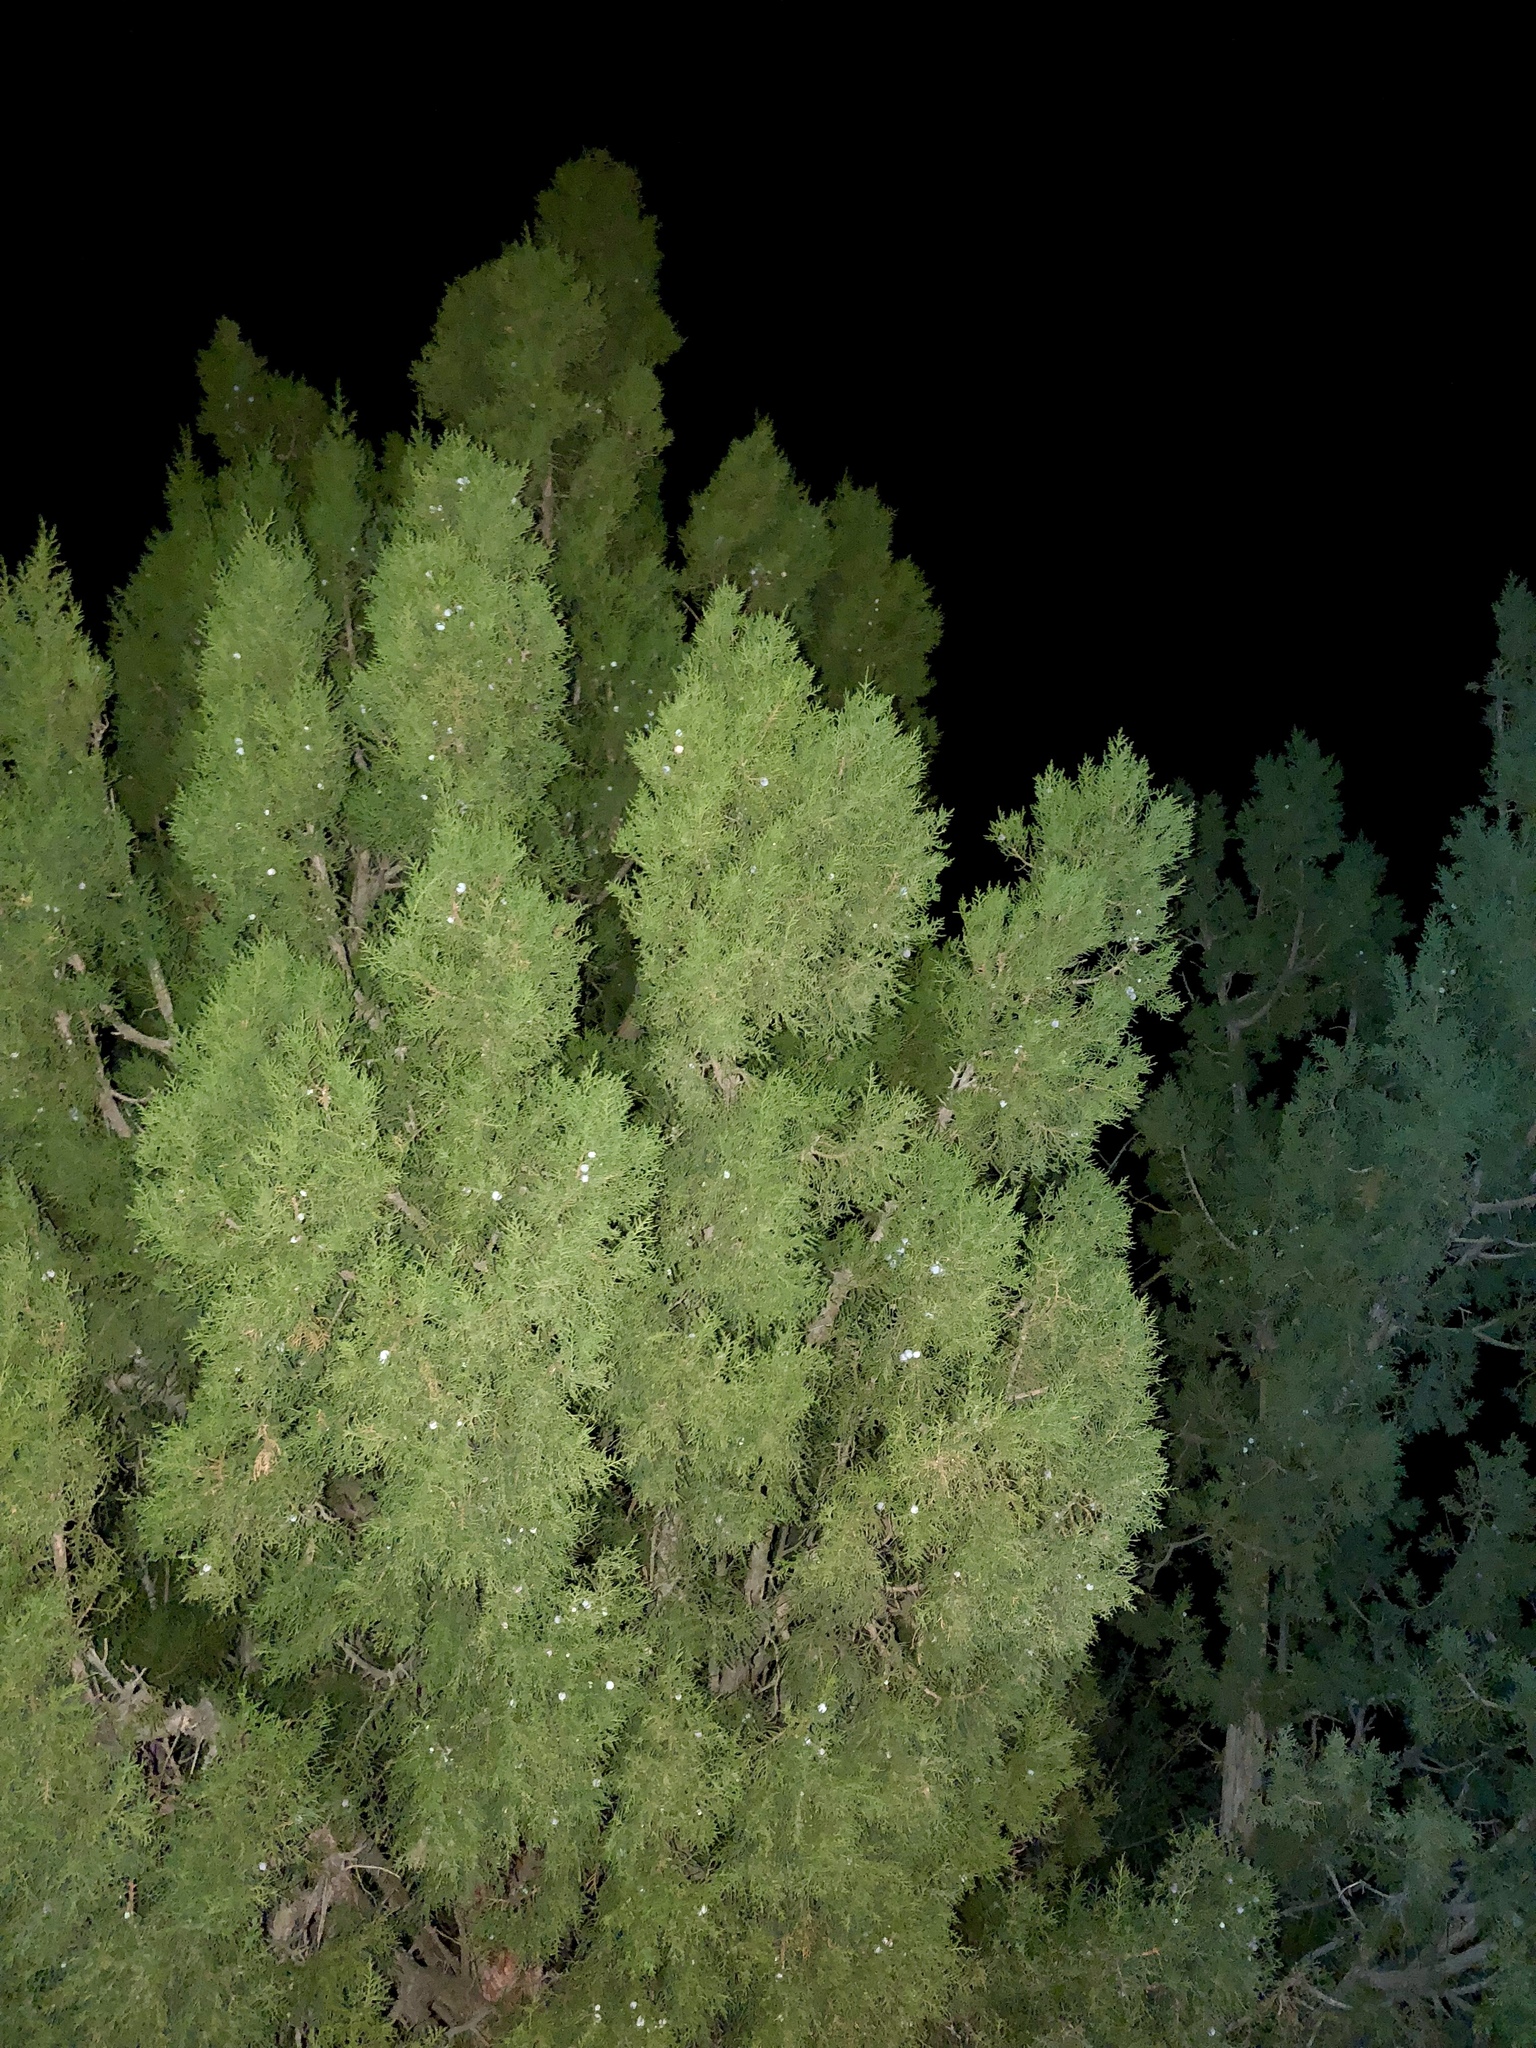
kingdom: Plantae
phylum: Tracheophyta
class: Pinopsida
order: Pinales
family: Cupressaceae
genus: Juniperus
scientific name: Juniperus osteosperma
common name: Utah juniper
